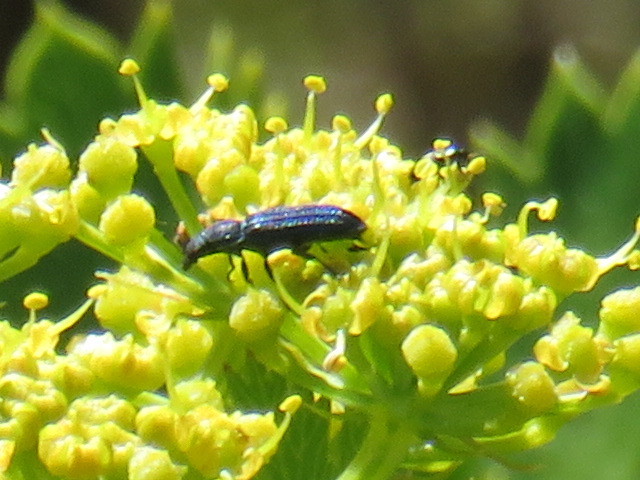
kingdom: Plantae
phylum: Tracheophyta
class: Magnoliopsida
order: Apiales
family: Apiaceae
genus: Notobubon
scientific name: Notobubon galbanum
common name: Blisterbush
